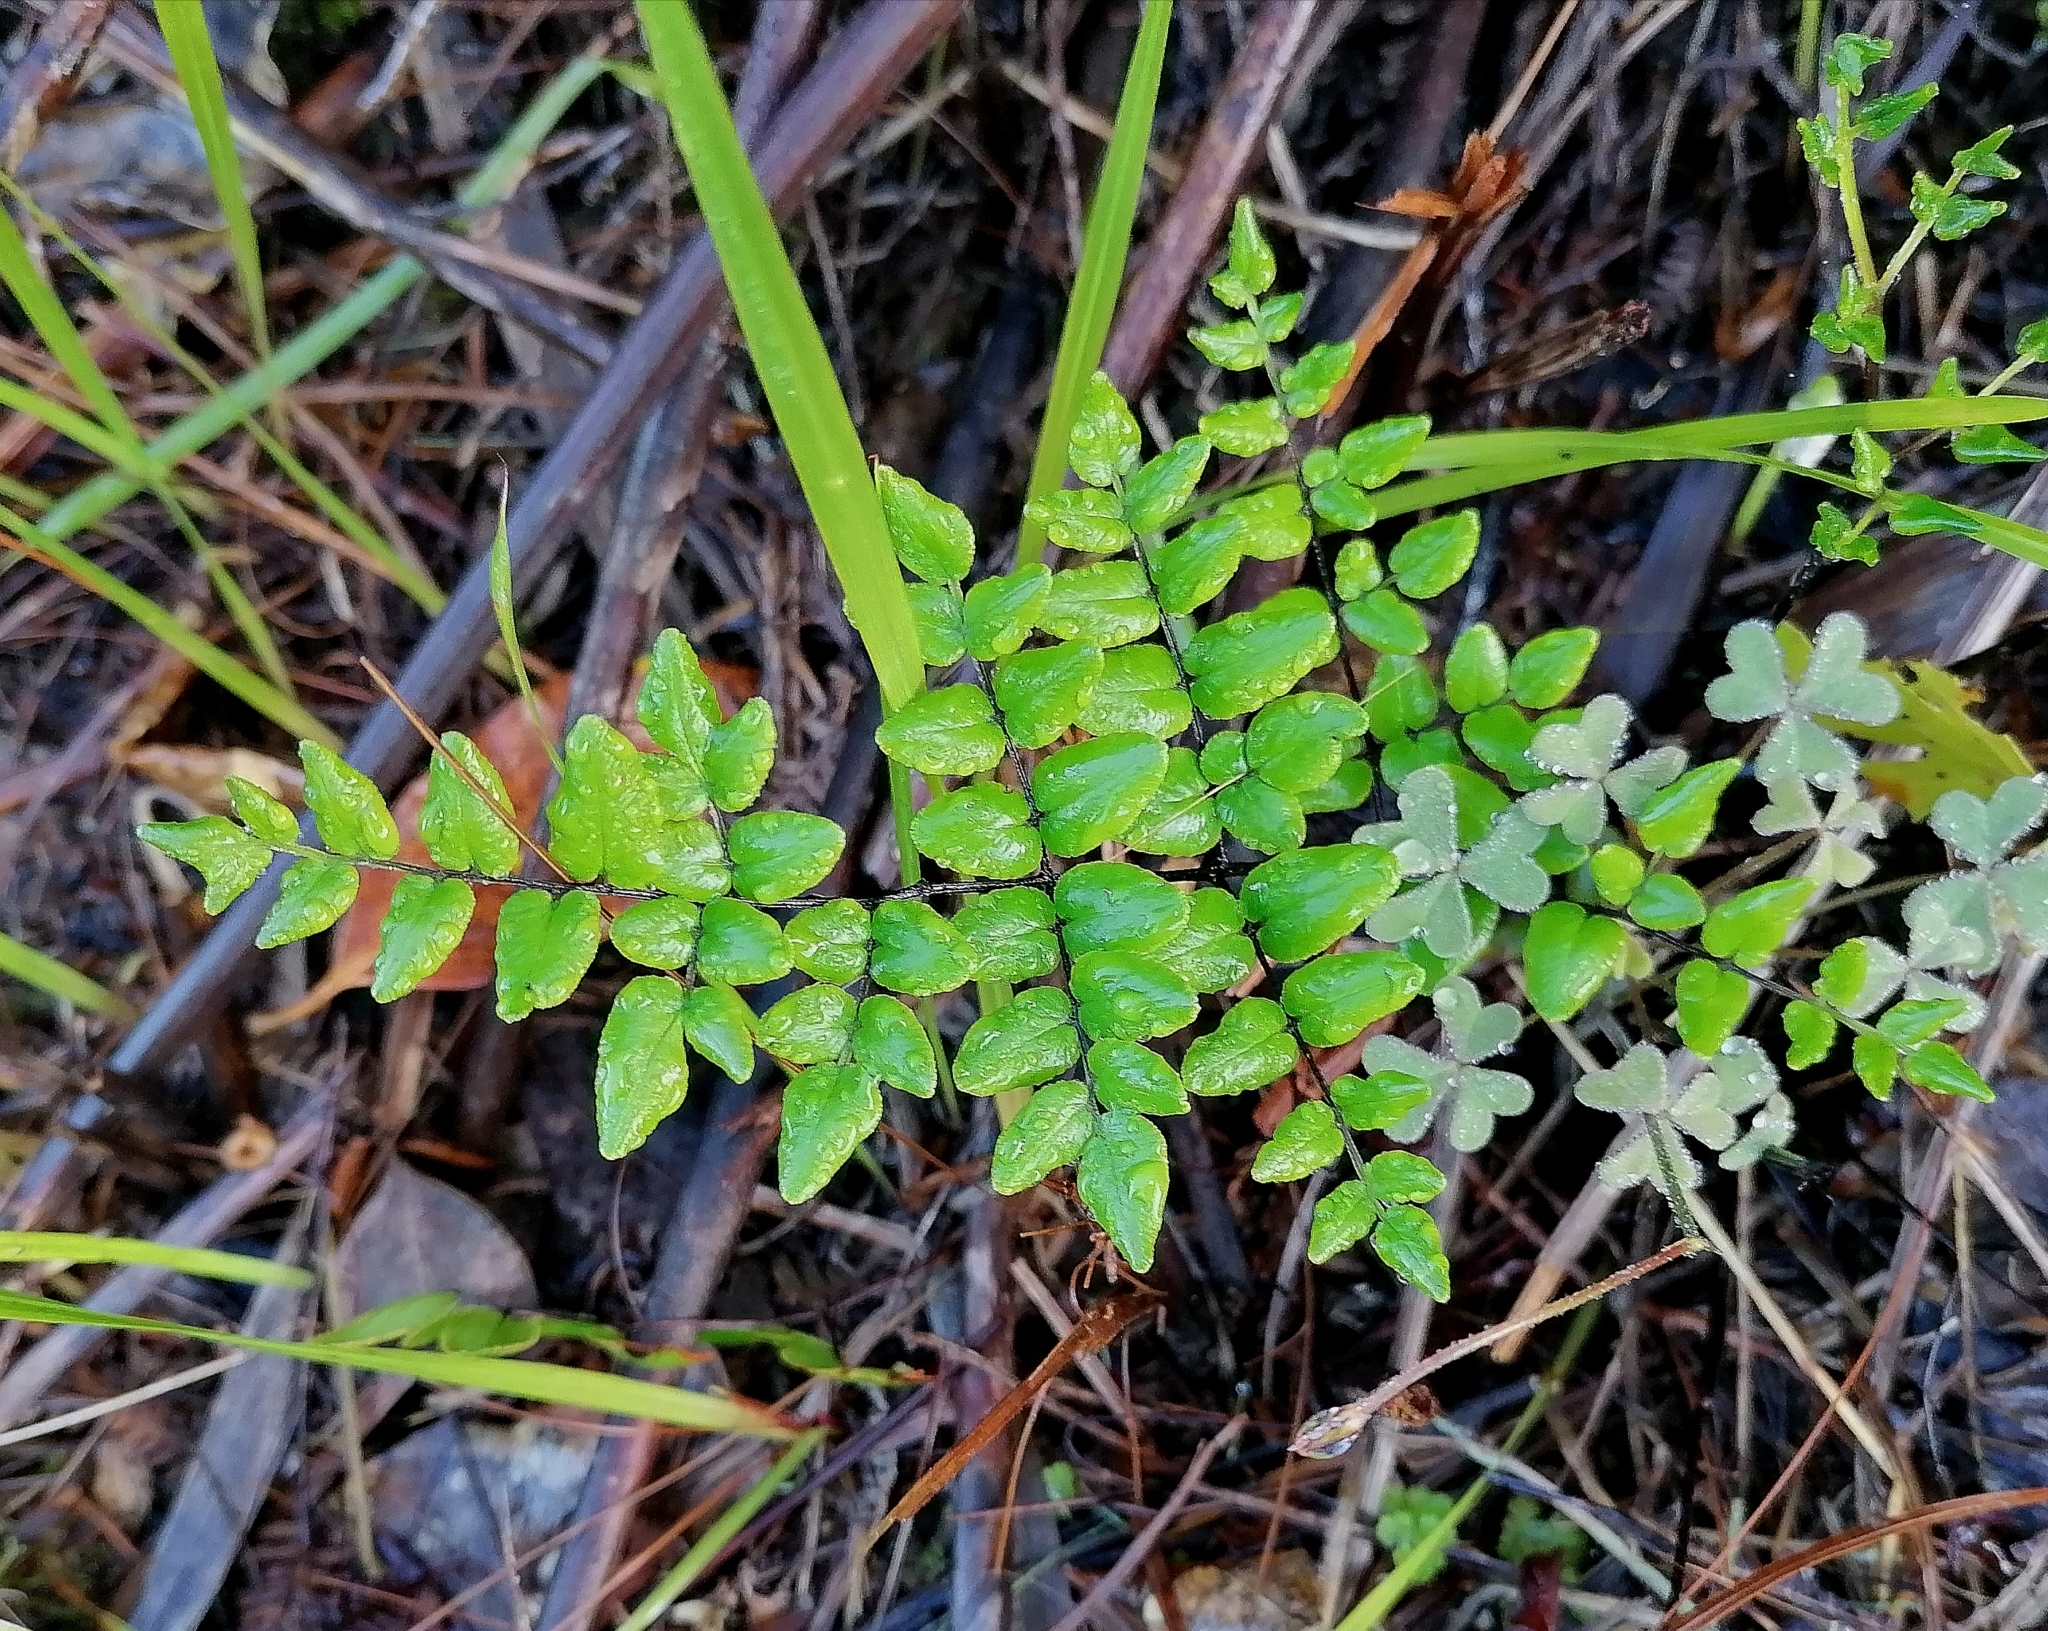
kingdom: Plantae
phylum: Tracheophyta
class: Polypodiopsida
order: Polypodiales
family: Pteridaceae
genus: Pellaea
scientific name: Pellaea pteroides
